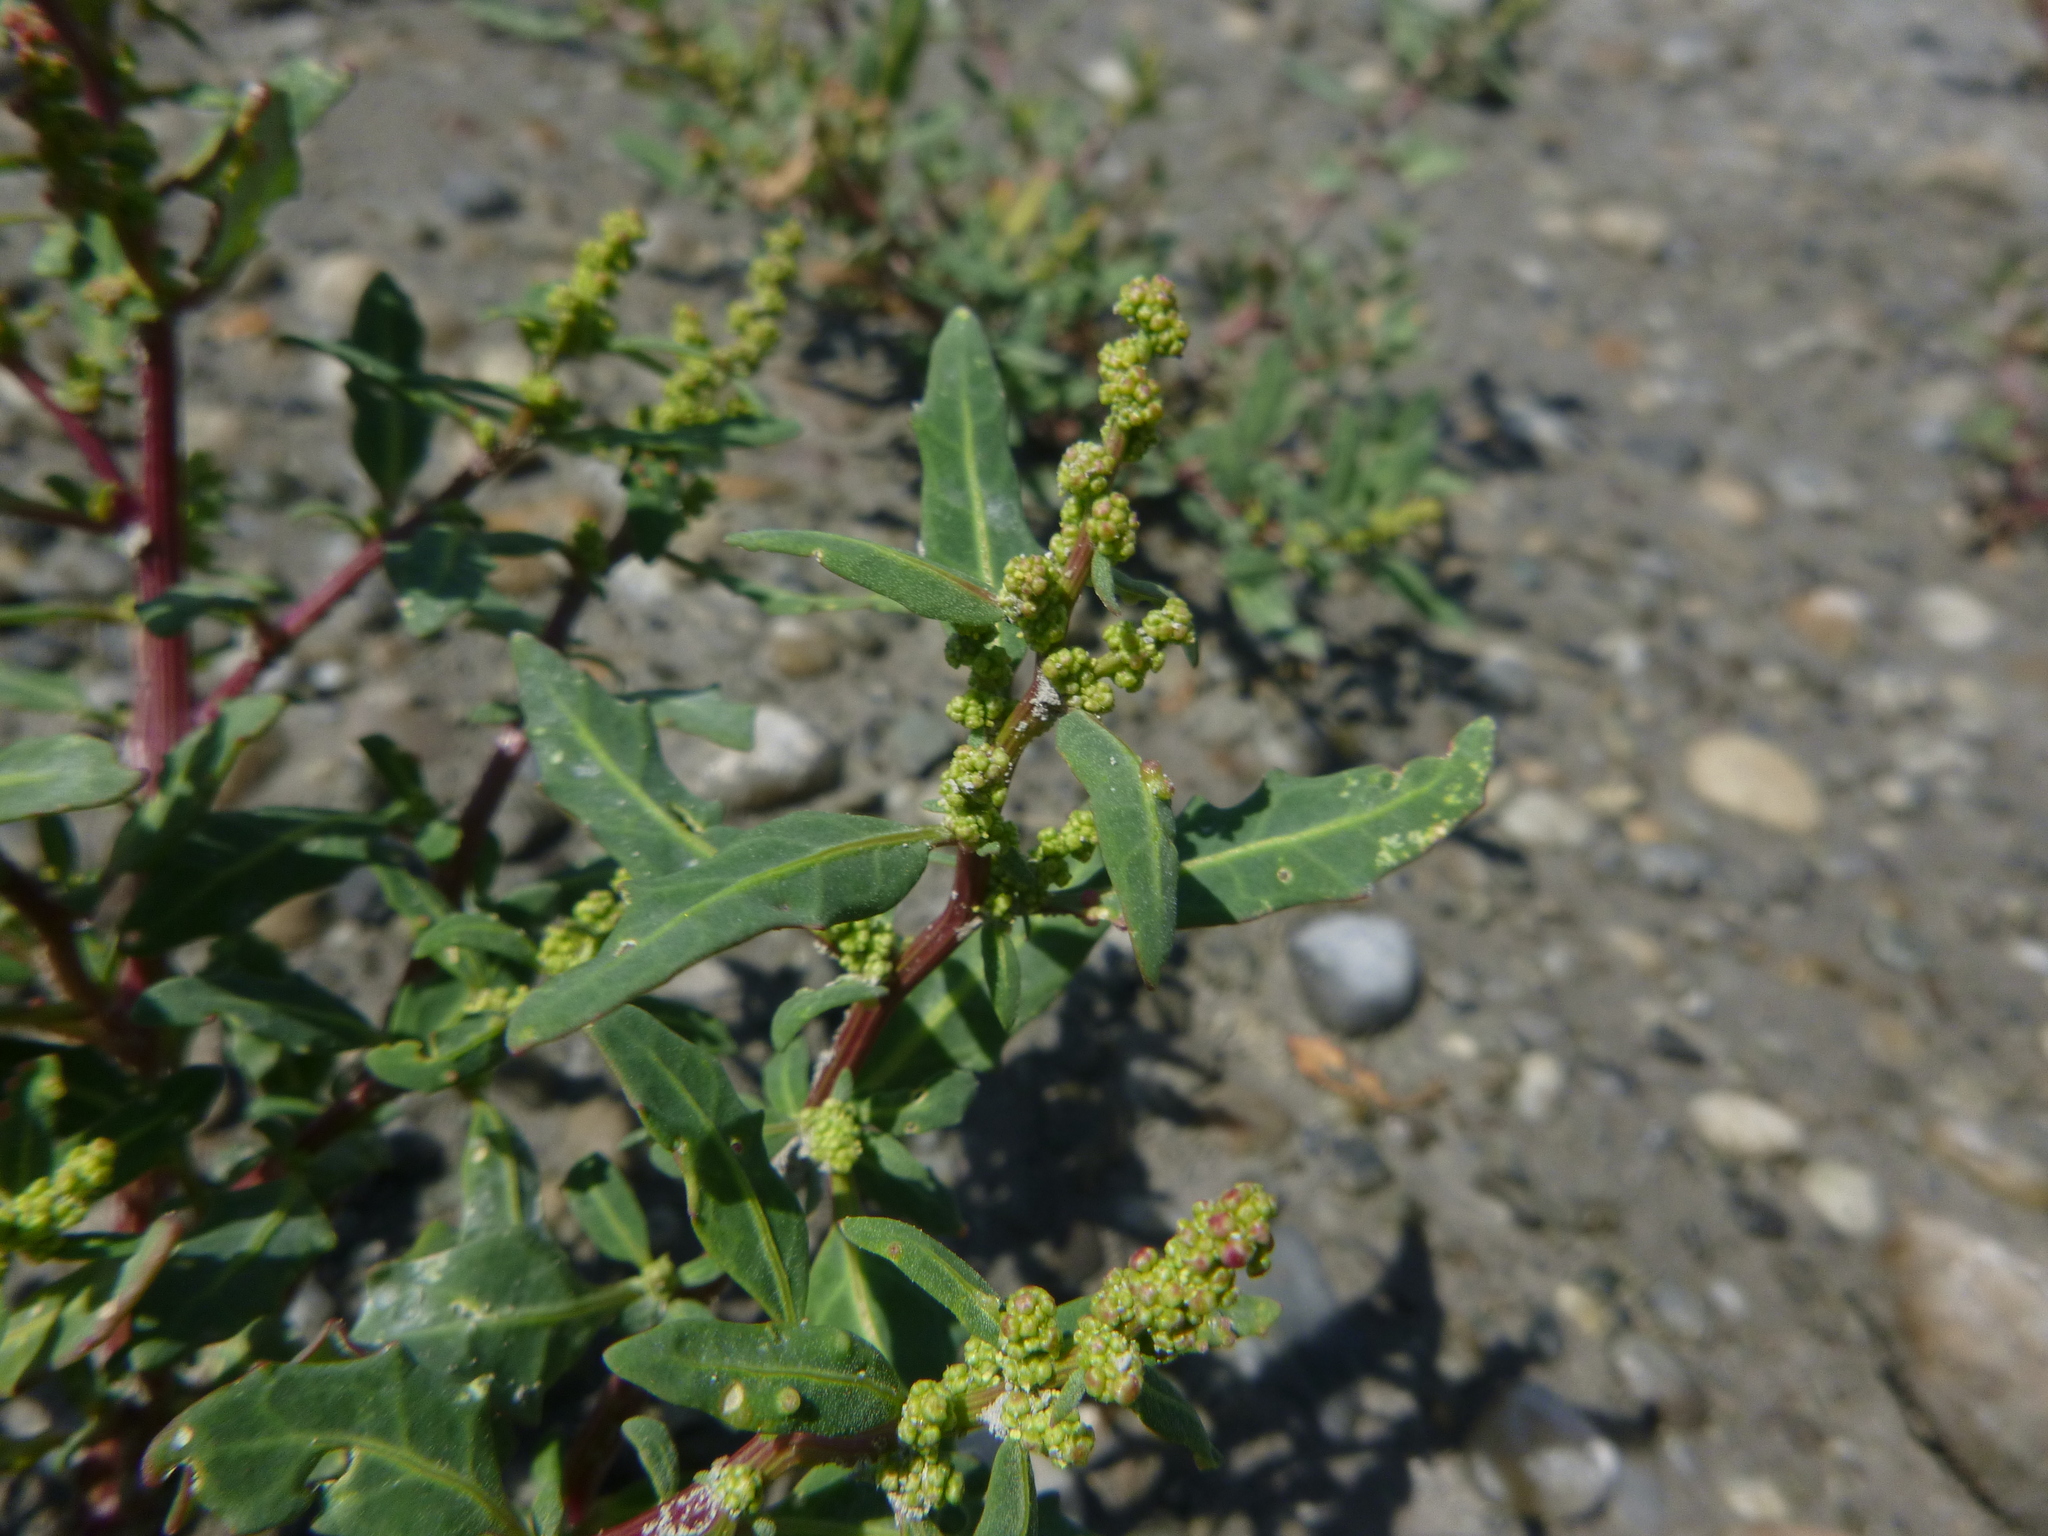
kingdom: Plantae
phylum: Tracheophyta
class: Magnoliopsida
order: Caryophyllales
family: Amaranthaceae
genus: Oxybasis
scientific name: Oxybasis glauca
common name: Glaucous goosefoot
